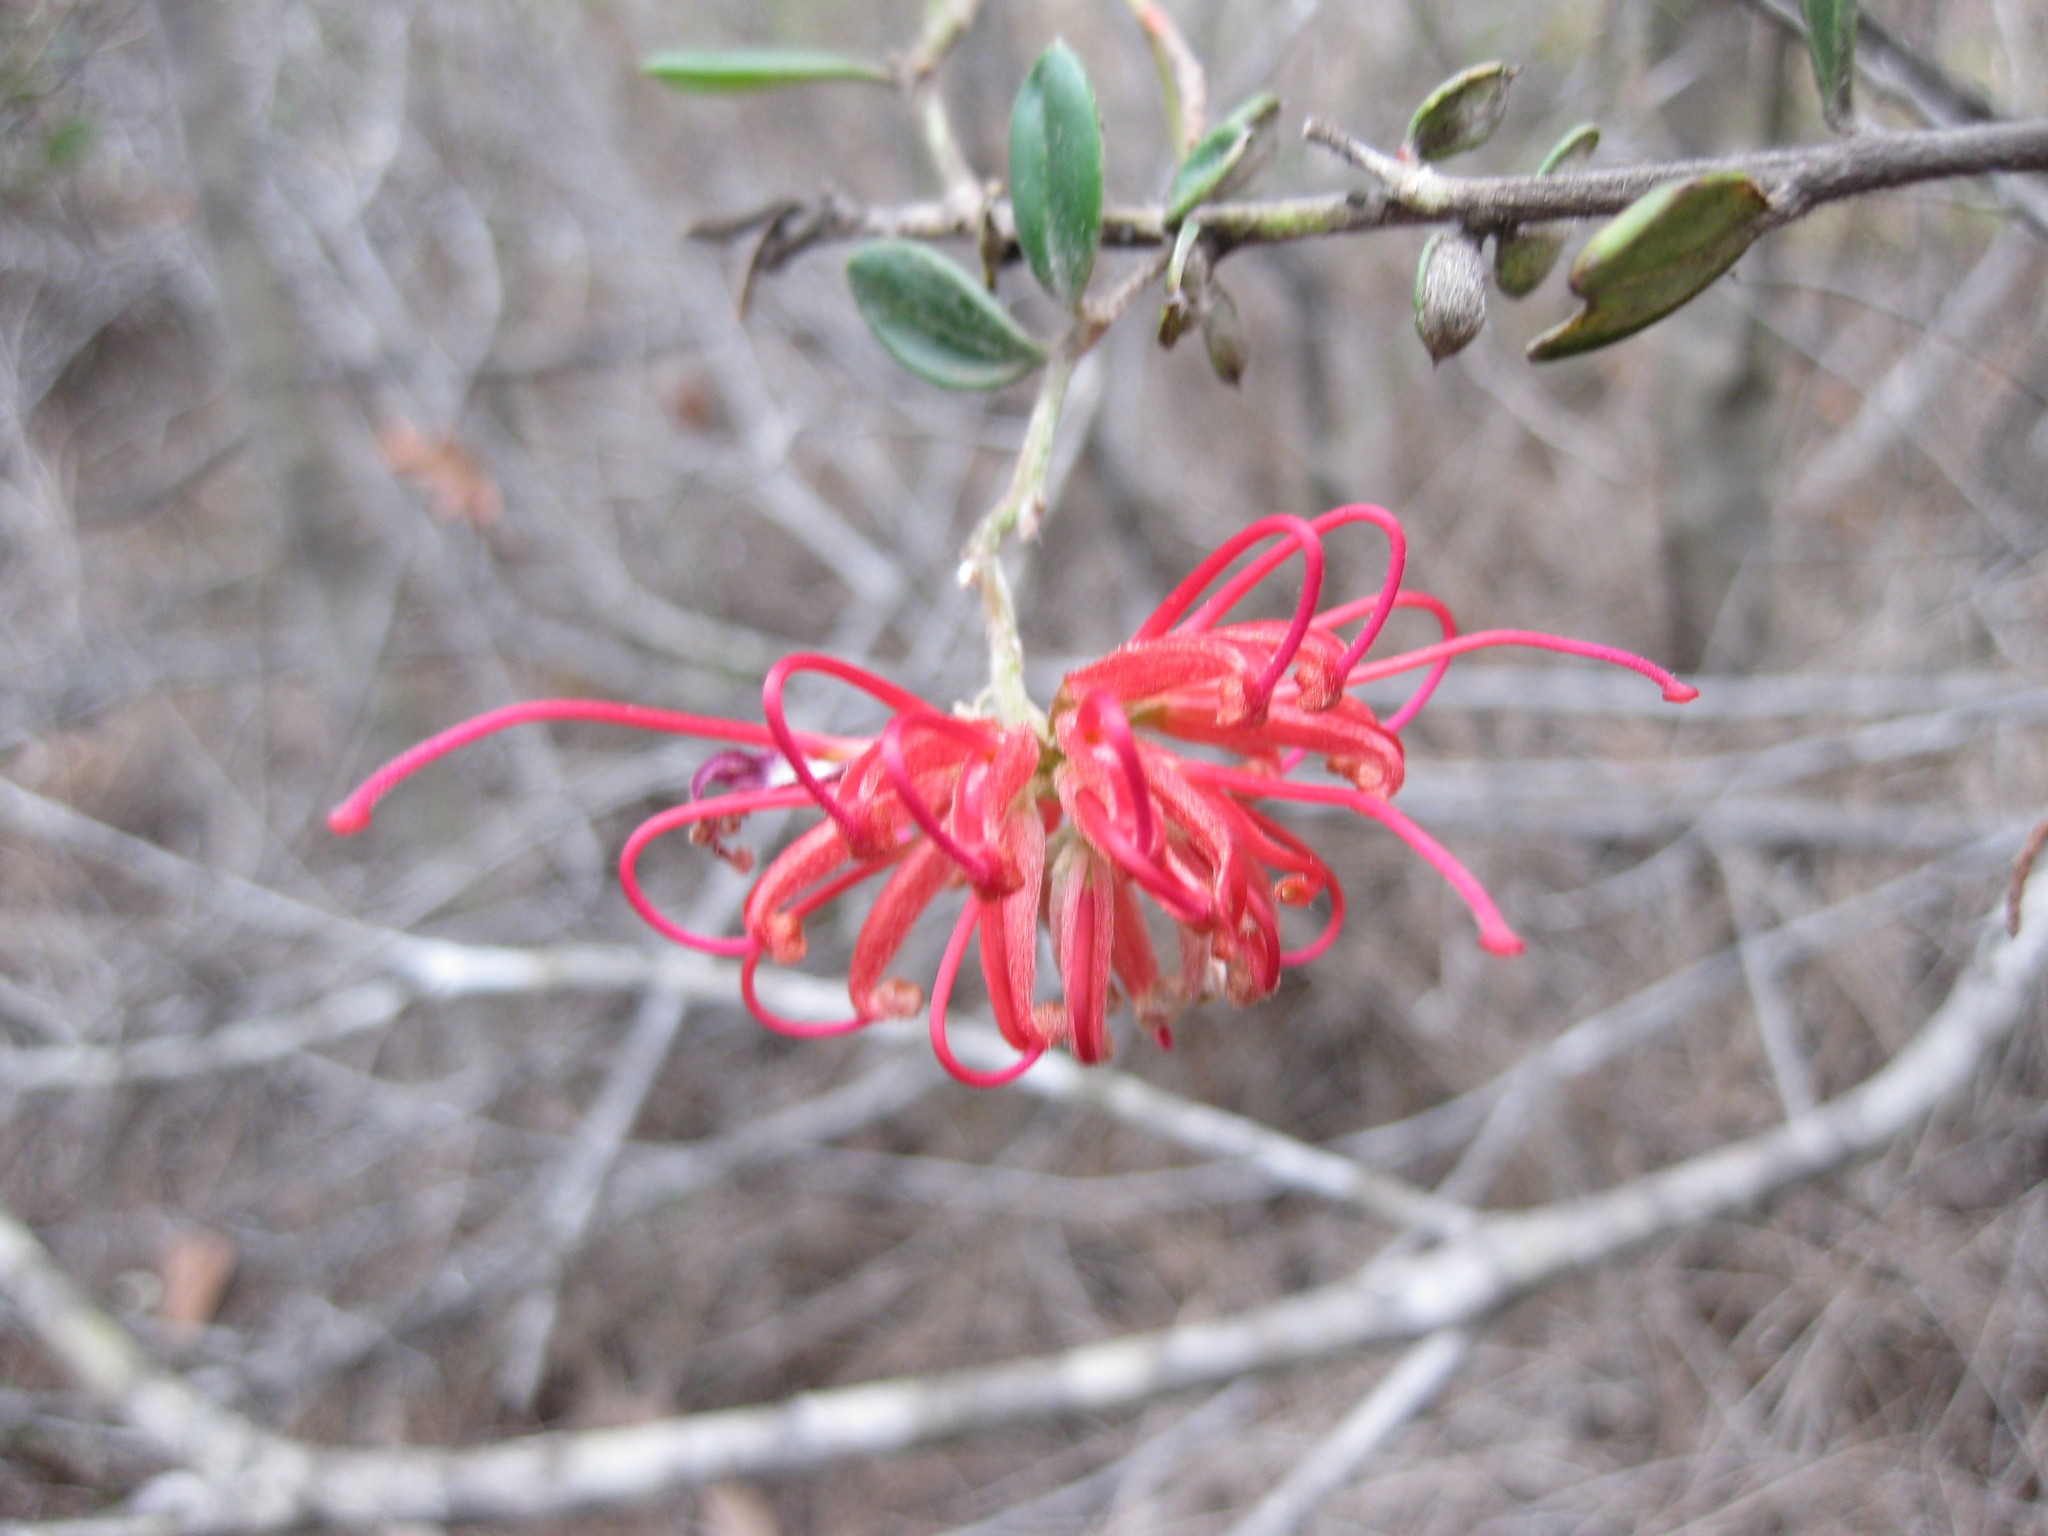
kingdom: Plantae
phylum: Tracheophyta
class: Magnoliopsida
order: Proteales
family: Proteaceae
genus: Grevillea
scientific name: Grevillea speciosa
